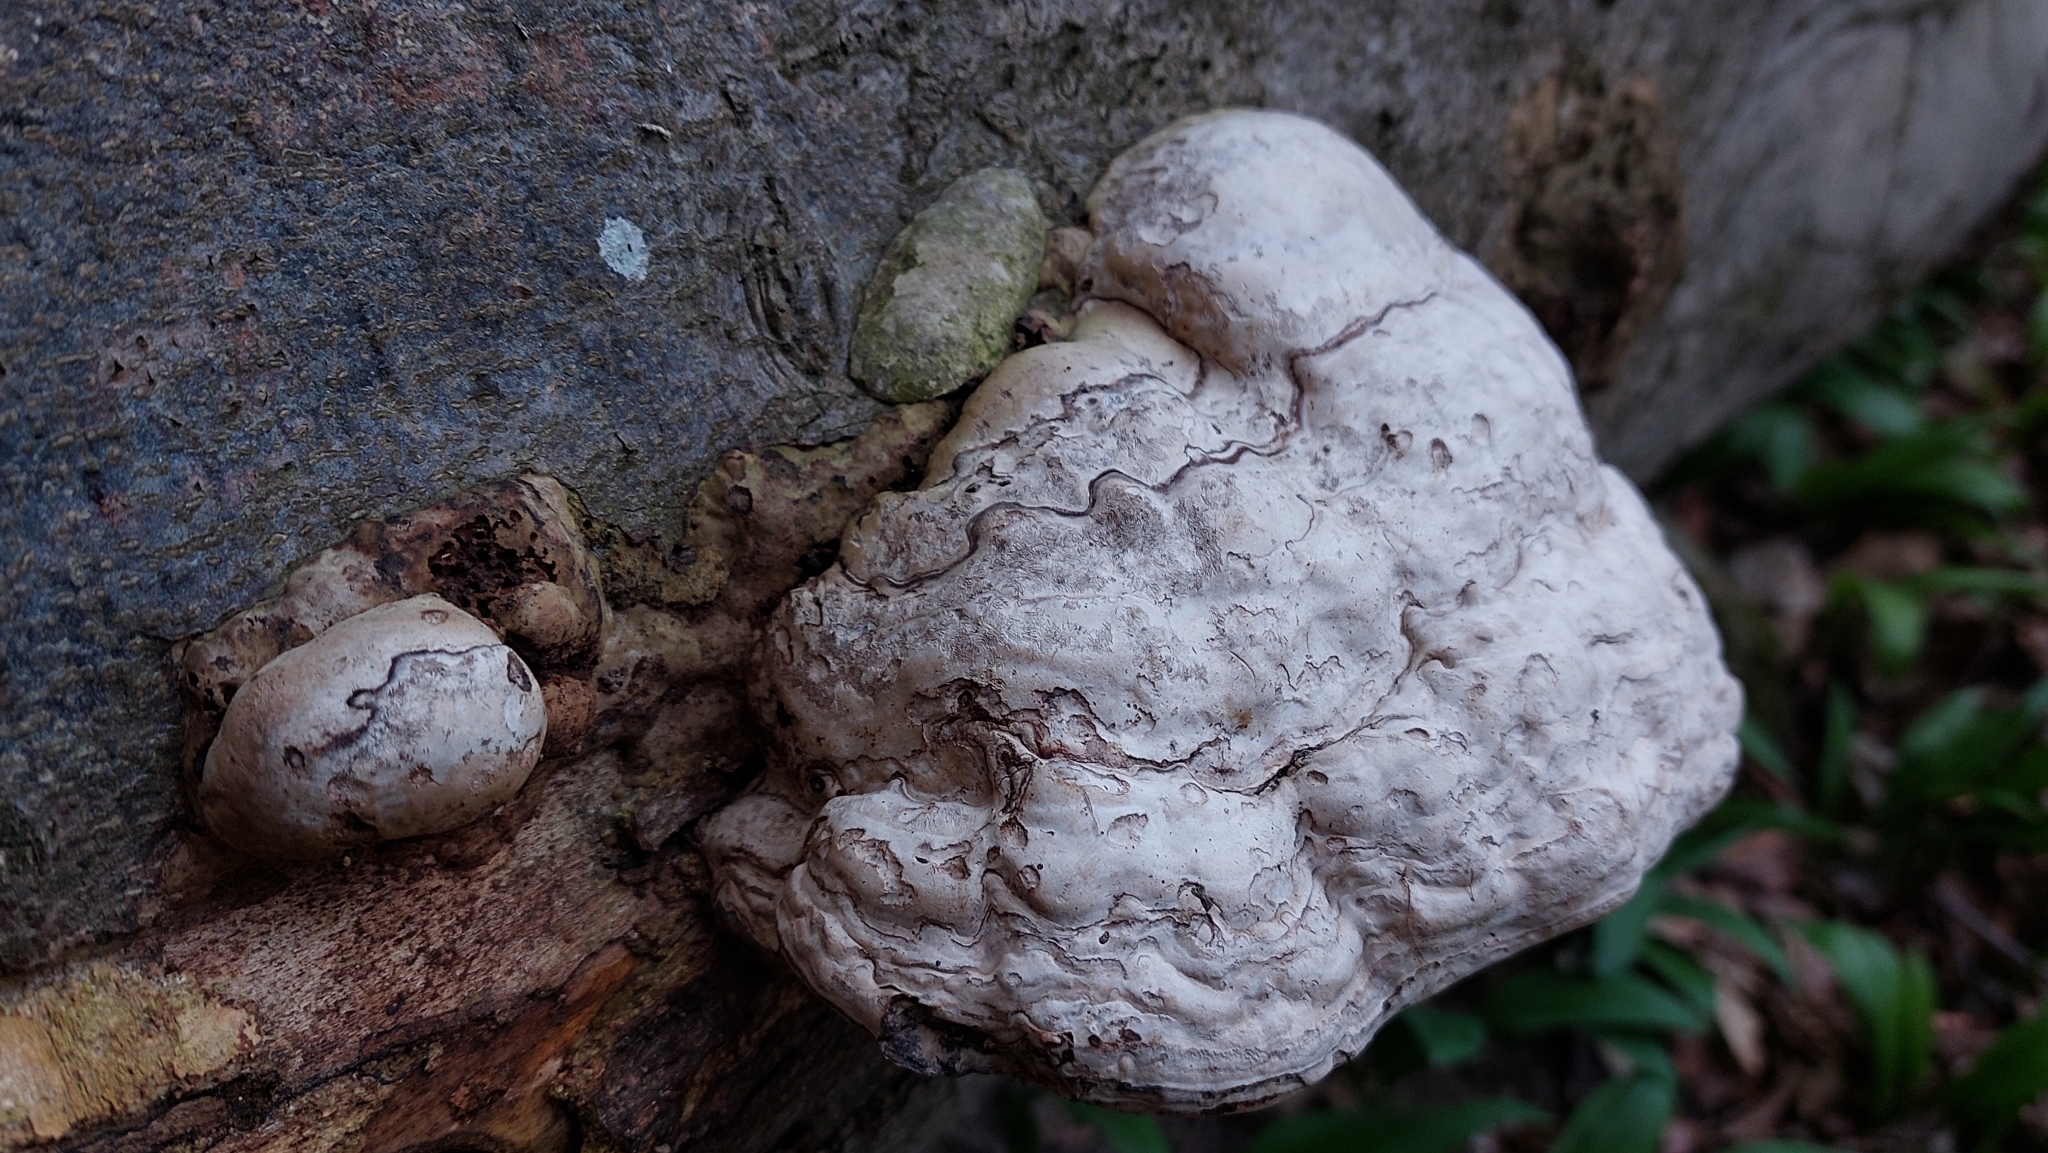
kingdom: Fungi
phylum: Basidiomycota
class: Agaricomycetes
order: Polyporales
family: Polyporaceae
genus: Fomes
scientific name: Fomes fomentarius
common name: Hoof fungus
